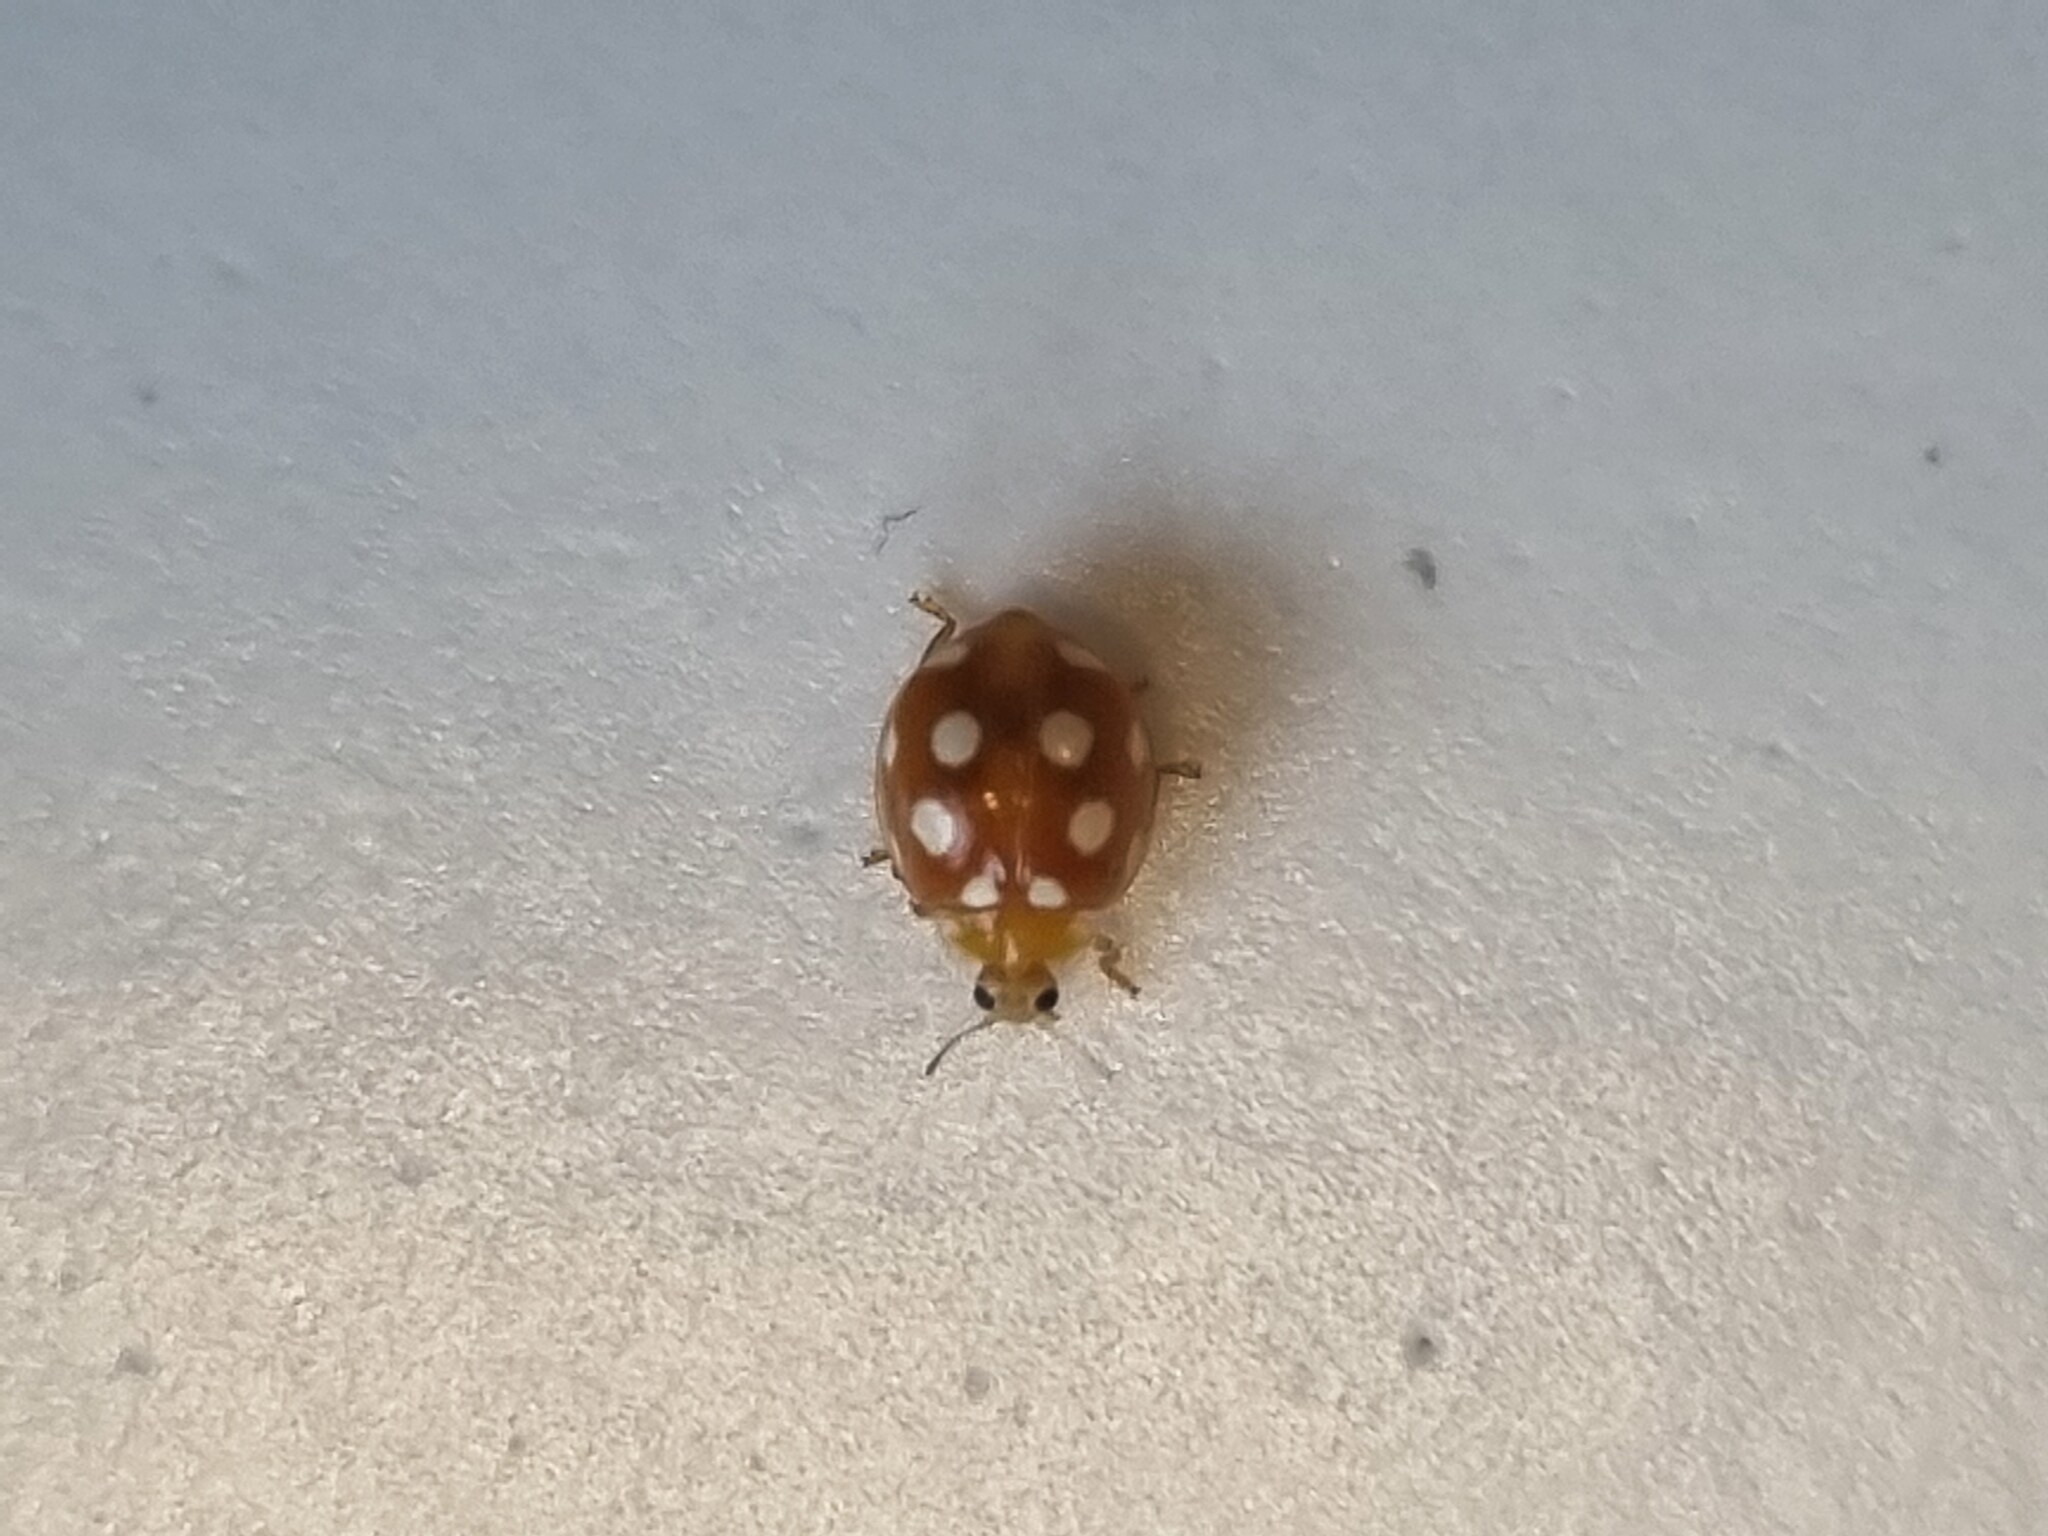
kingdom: Animalia
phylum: Arthropoda
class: Insecta
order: Coleoptera
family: Coccinellidae
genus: Vibidia
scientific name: Vibidia duodecimguttata
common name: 12-spot ladybird
